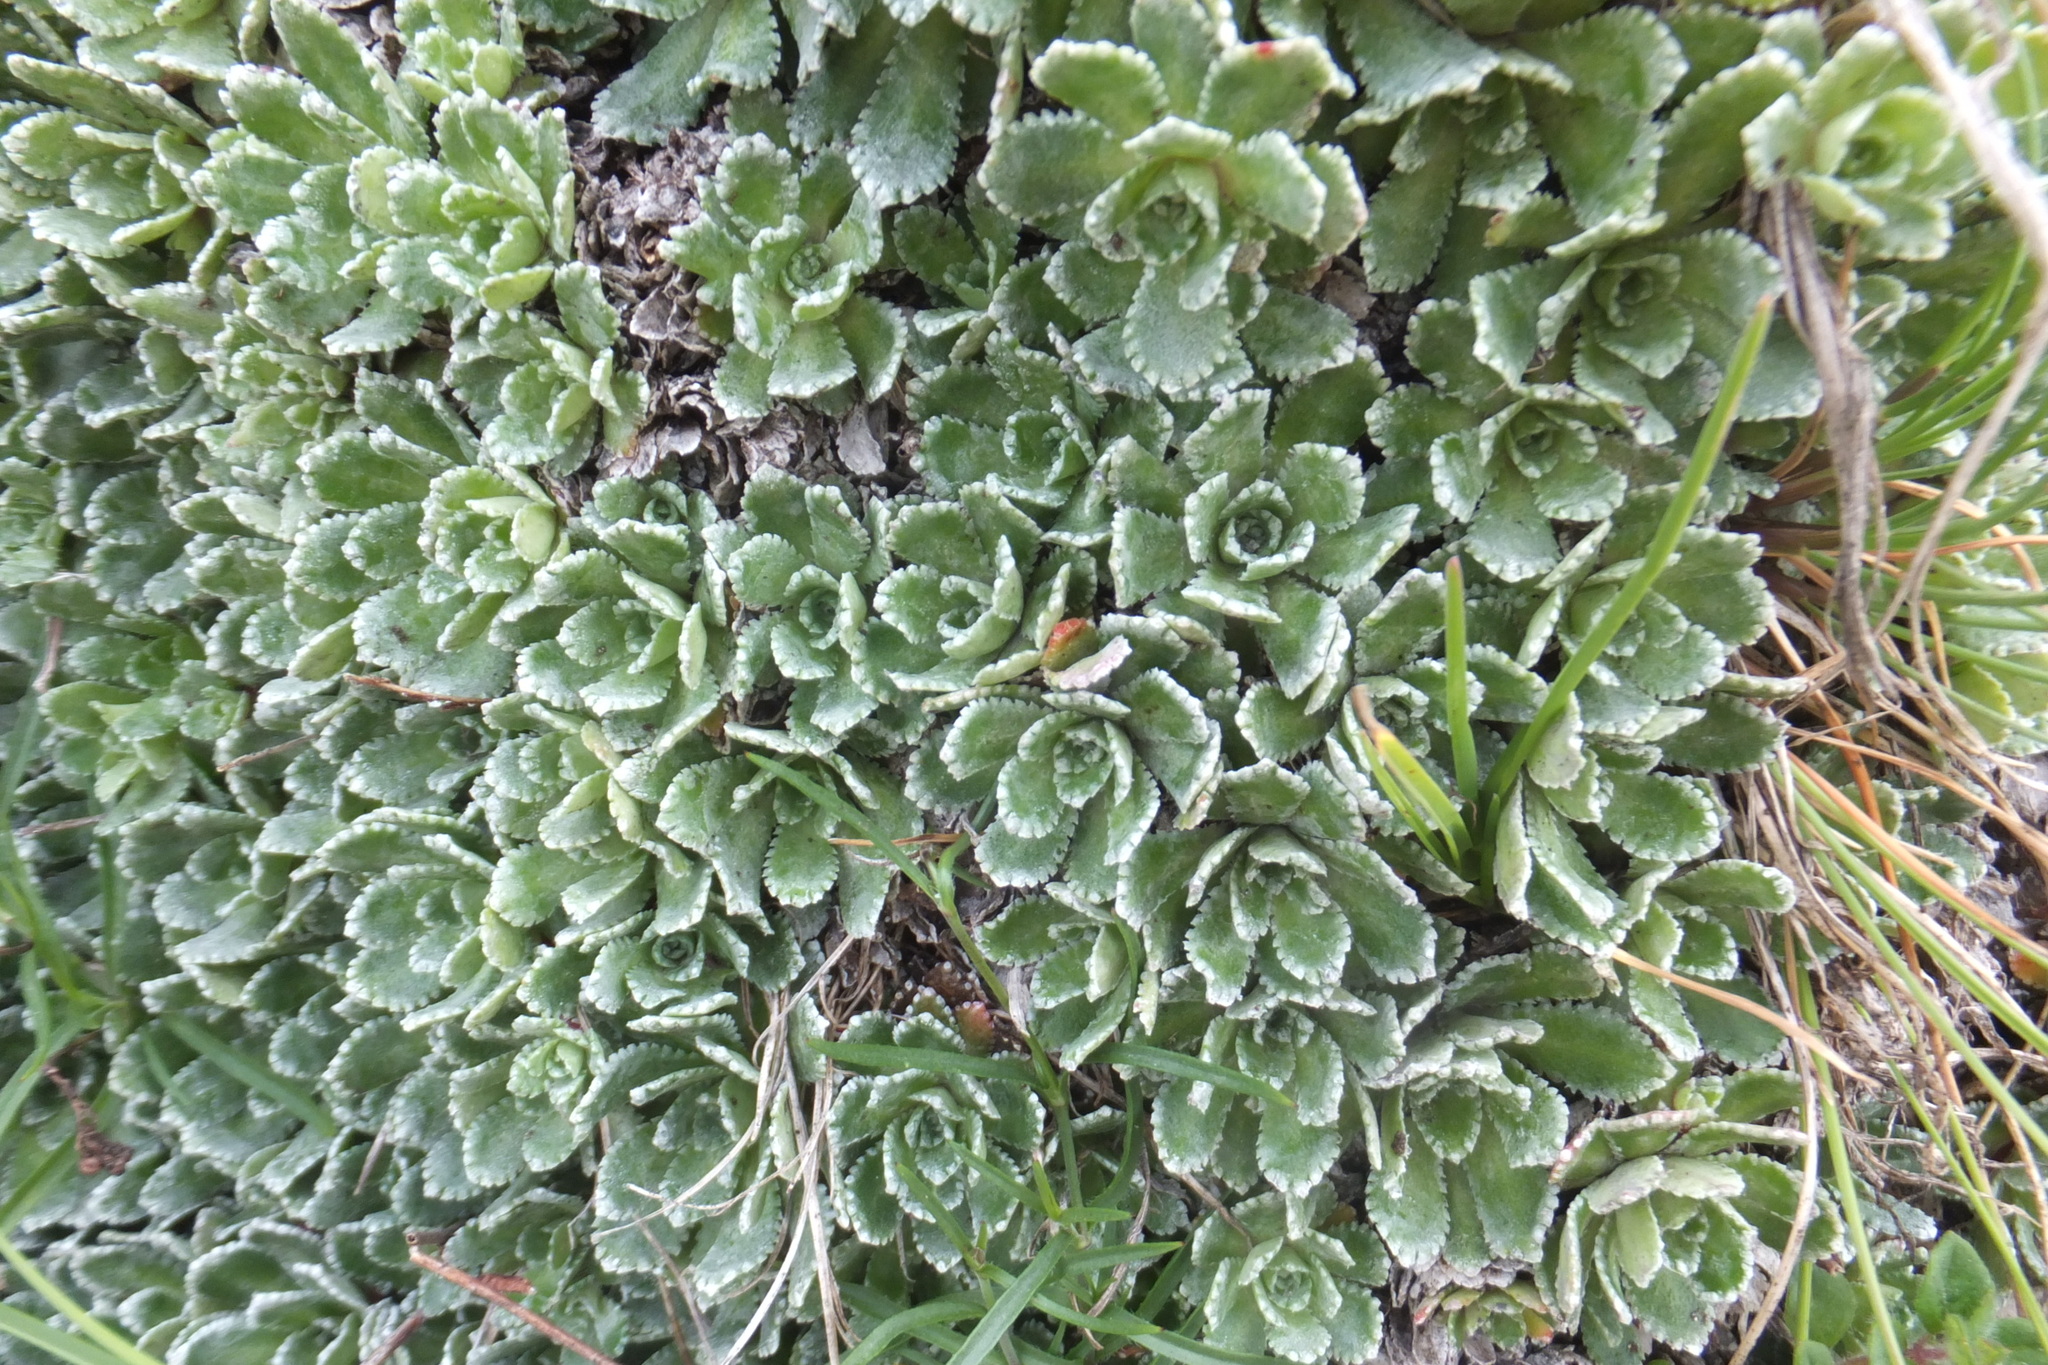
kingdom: Plantae
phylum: Tracheophyta
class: Magnoliopsida
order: Saxifragales
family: Saxifragaceae
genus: Saxifraga
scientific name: Saxifraga paniculata
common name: Livelong saxifrage
